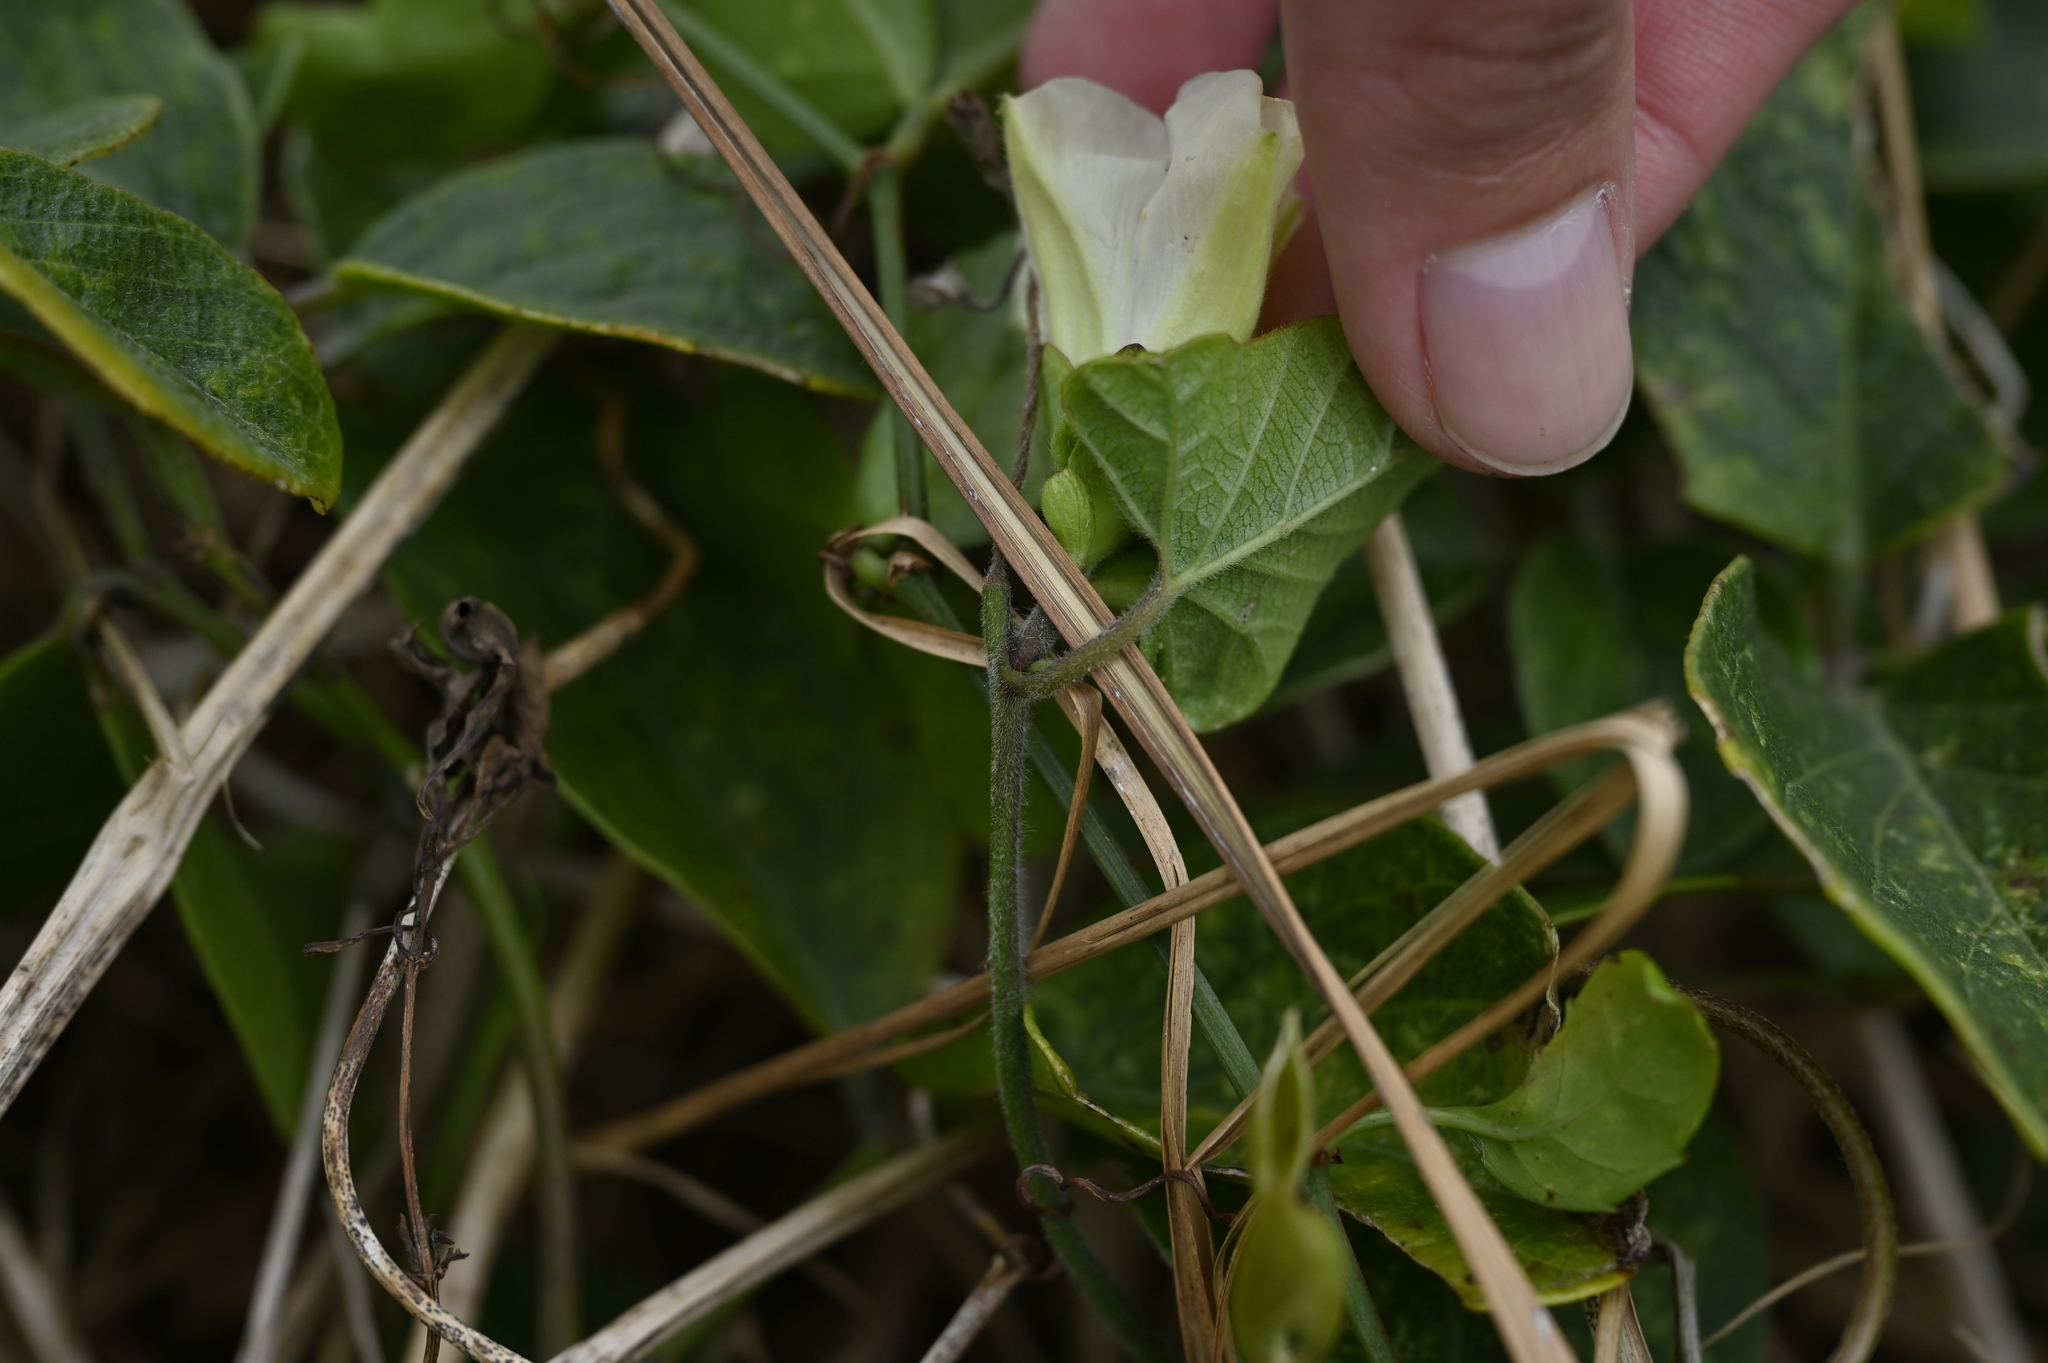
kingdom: Plantae
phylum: Tracheophyta
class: Magnoliopsida
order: Solanales
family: Convolvulaceae
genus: Hewittia
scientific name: Hewittia malabarica
